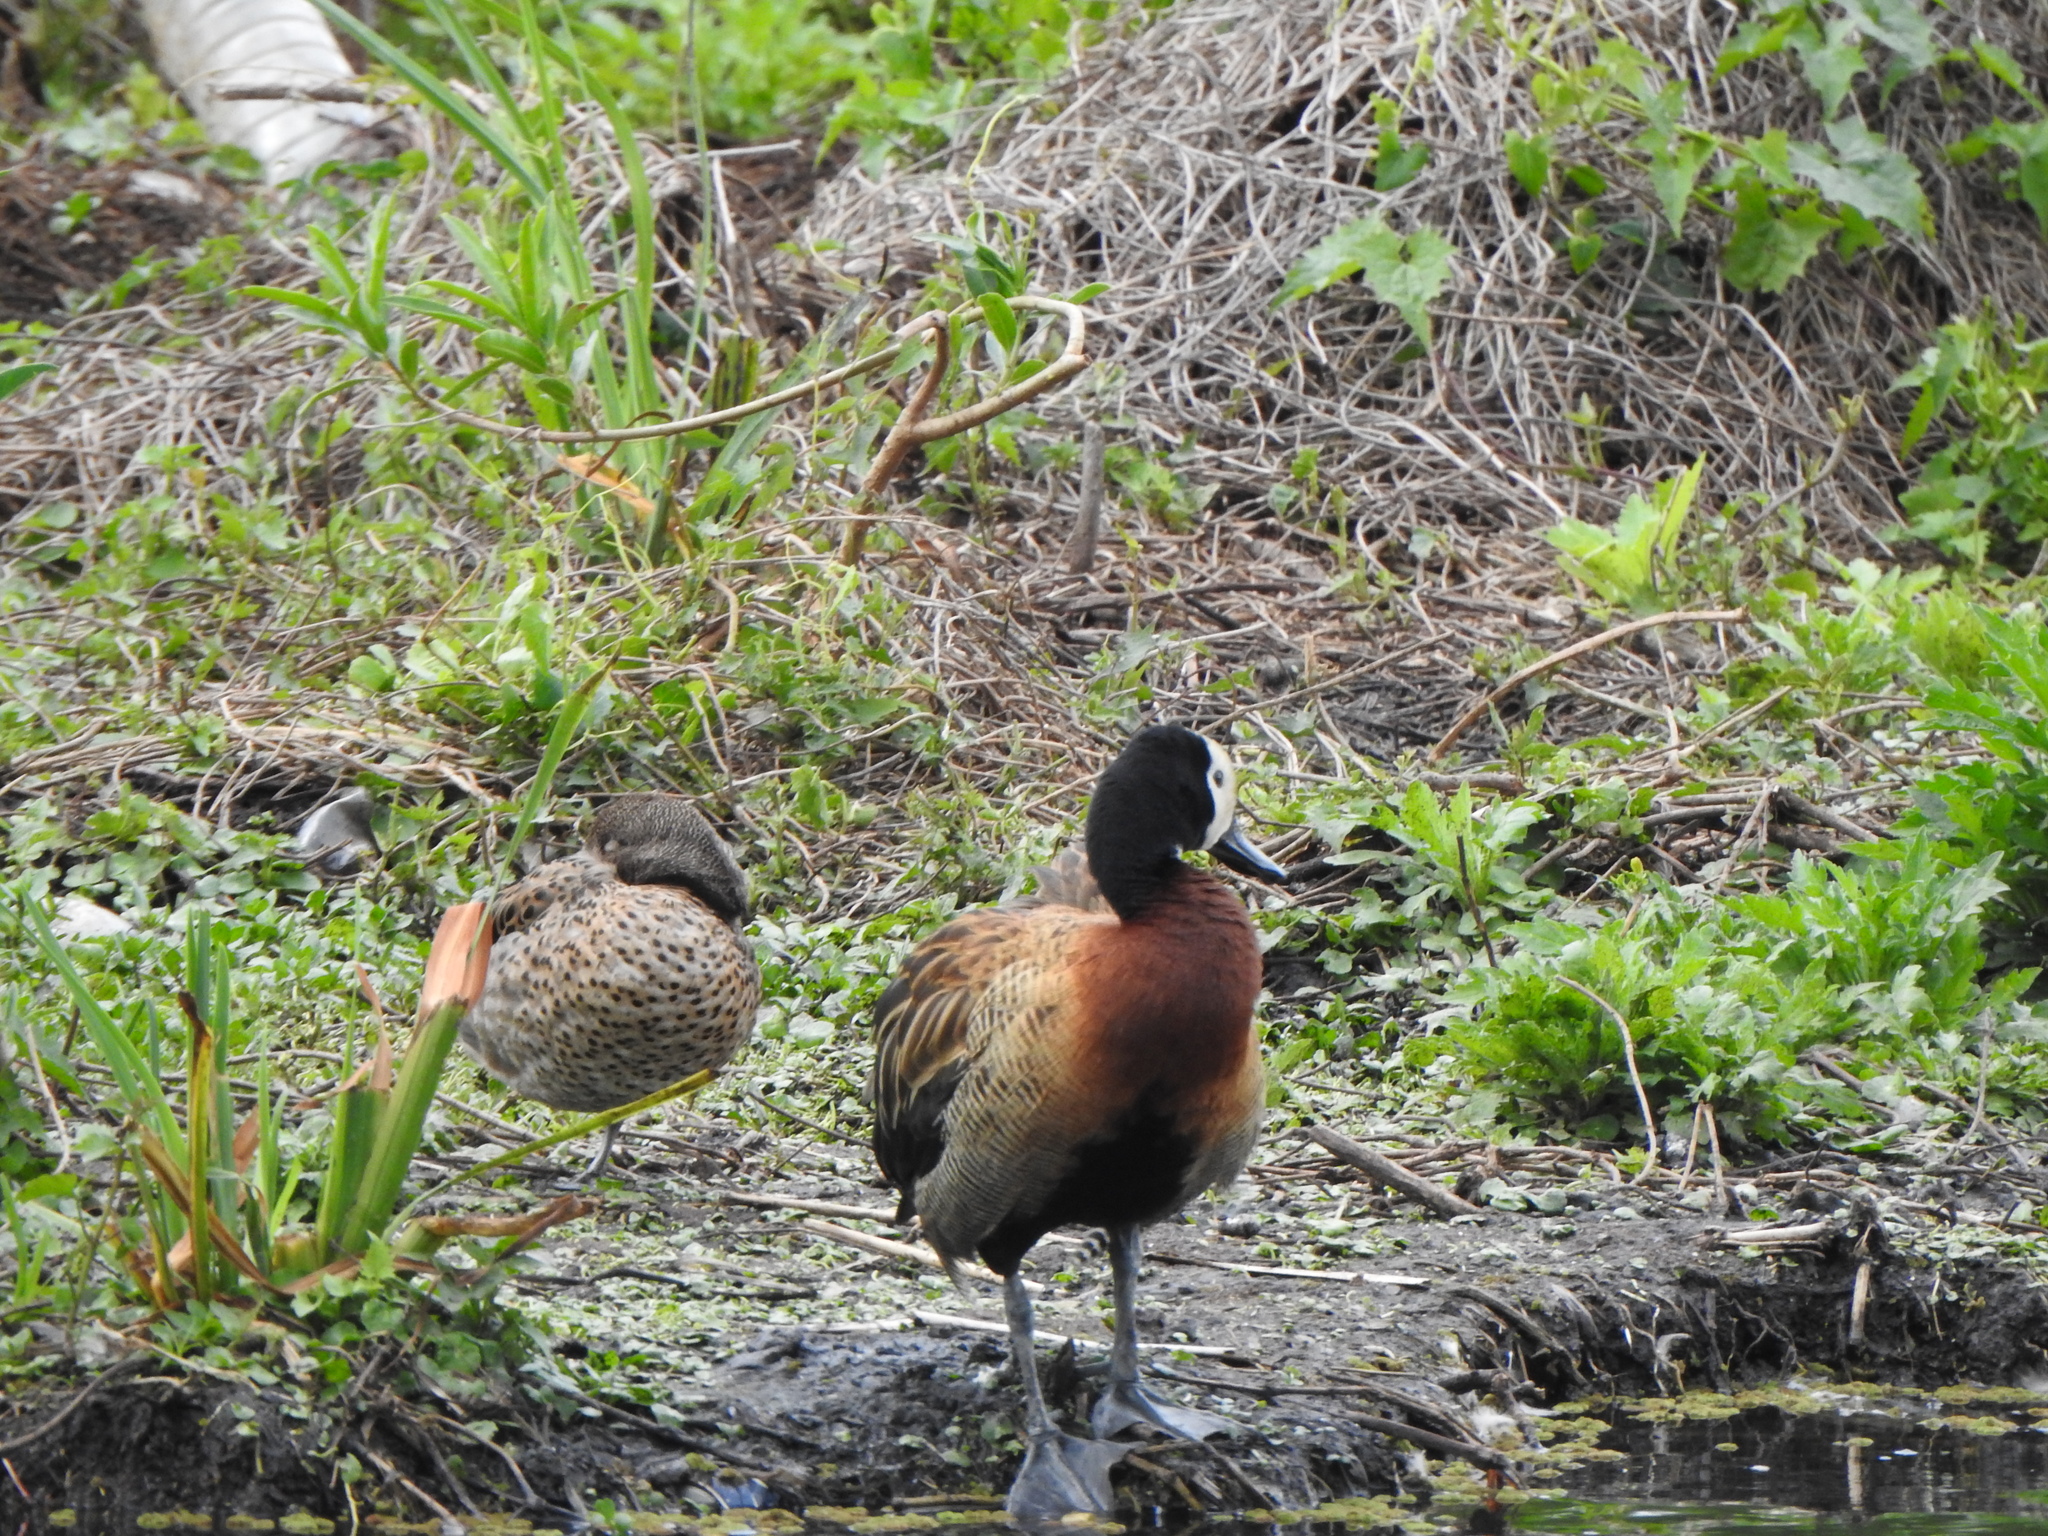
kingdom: Animalia
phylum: Chordata
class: Aves
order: Anseriformes
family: Anatidae
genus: Dendrocygna
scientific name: Dendrocygna viduata
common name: White-faced whistling duck
